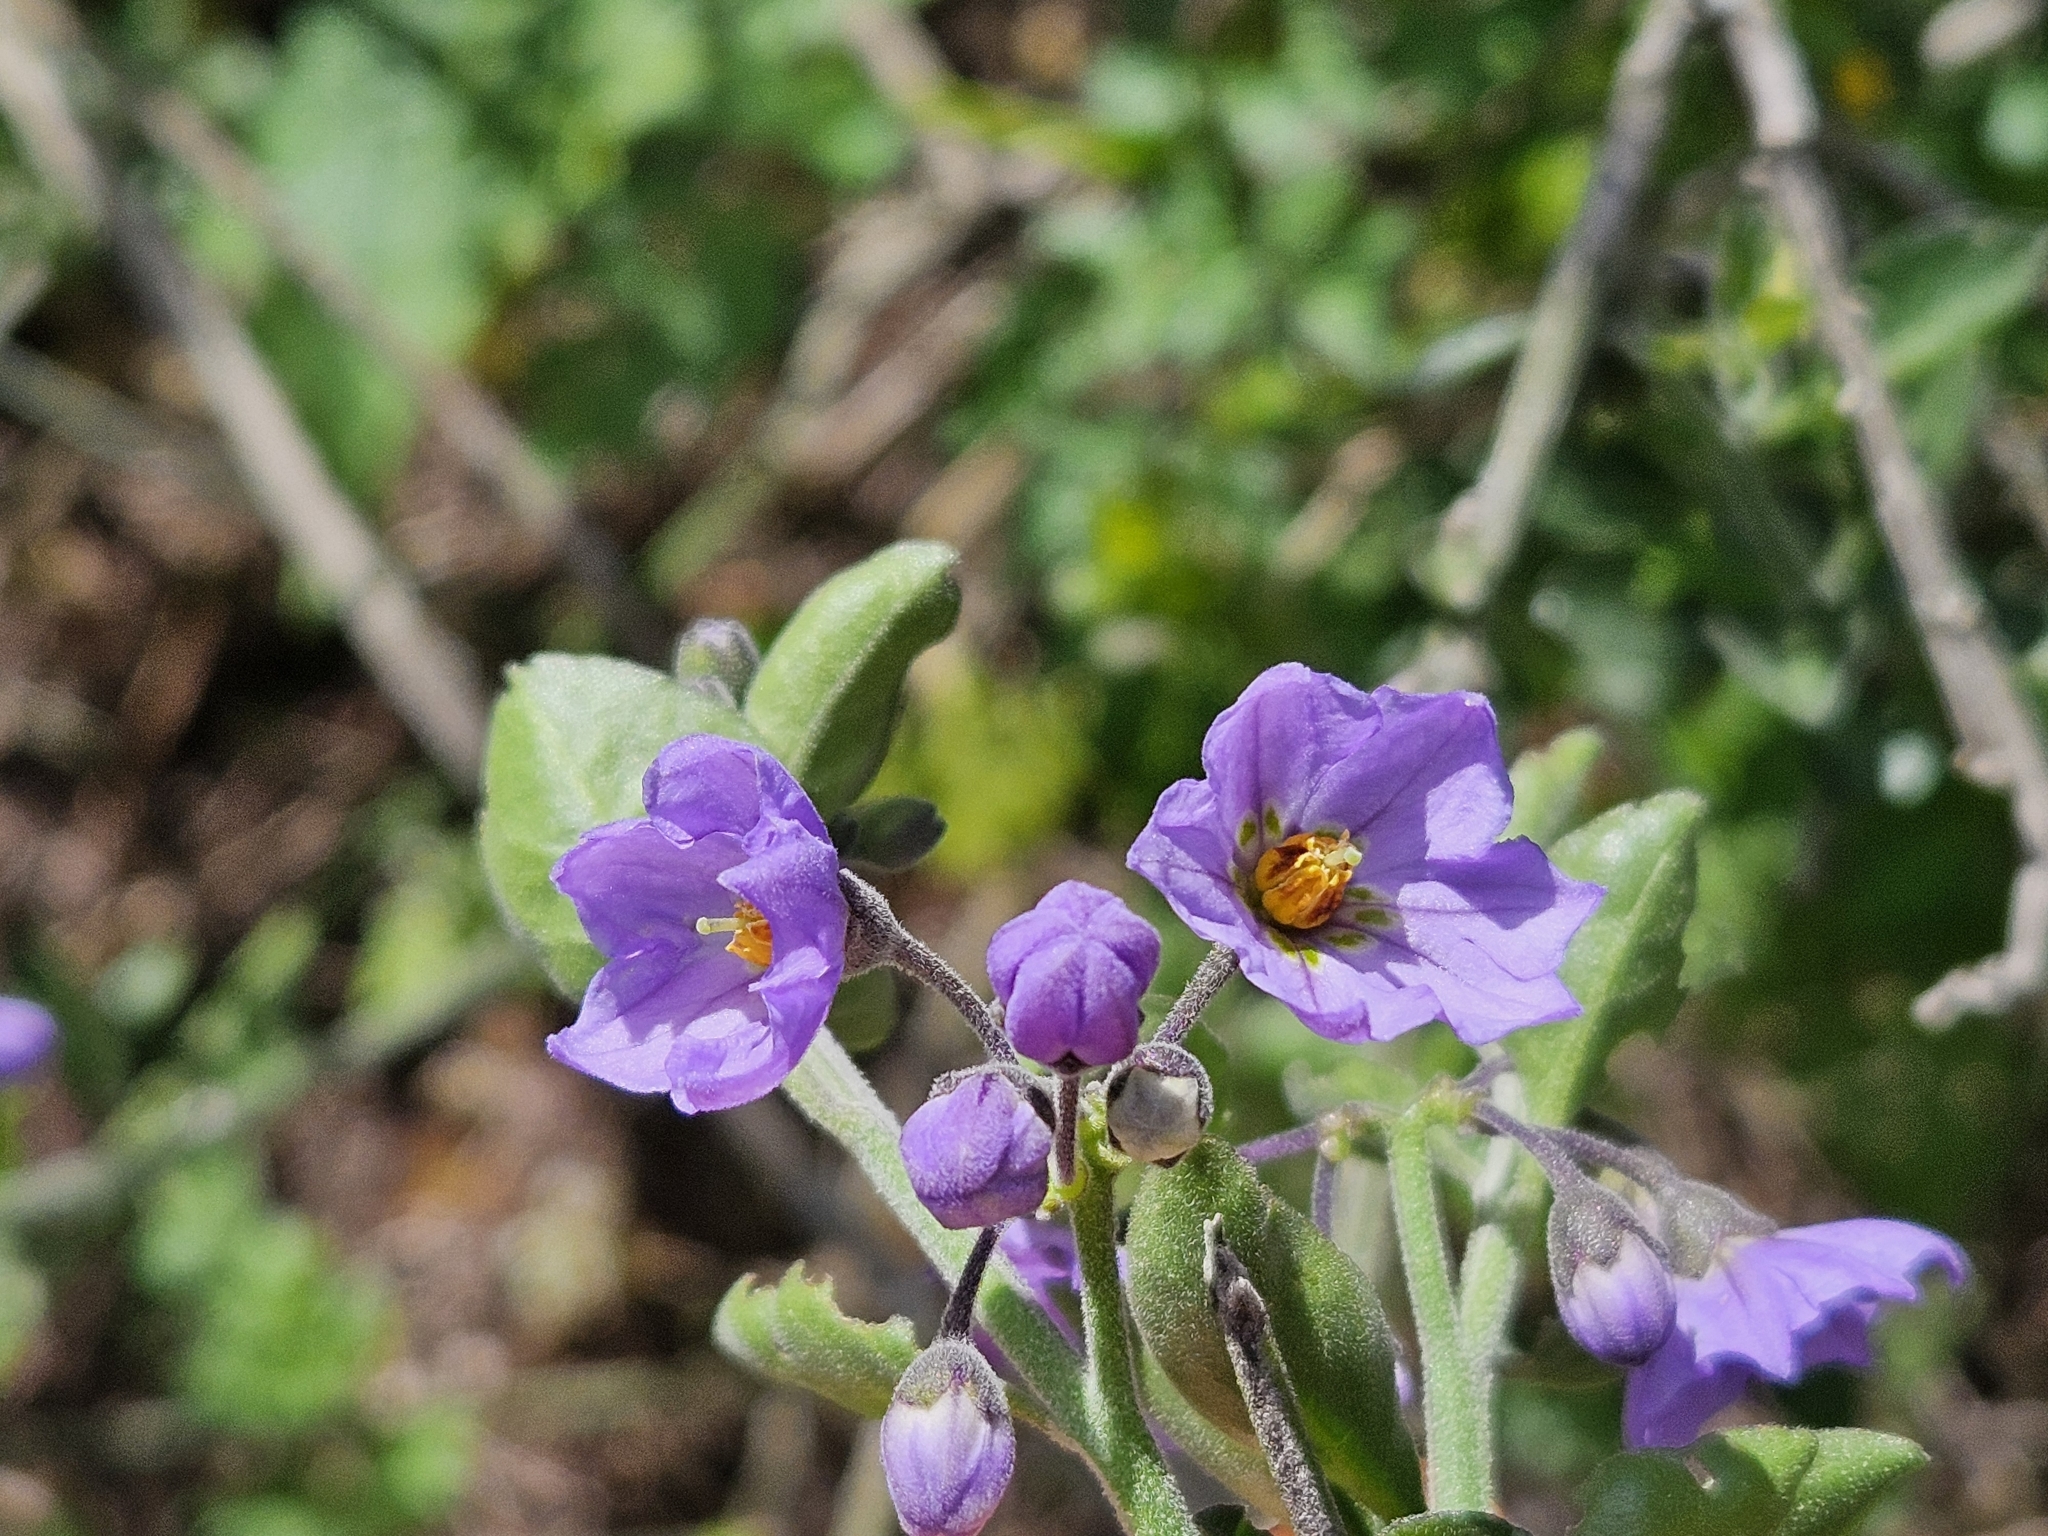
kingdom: Plantae
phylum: Tracheophyta
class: Magnoliopsida
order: Solanales
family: Solanaceae
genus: Solanum
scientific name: Solanum umbelliferum
